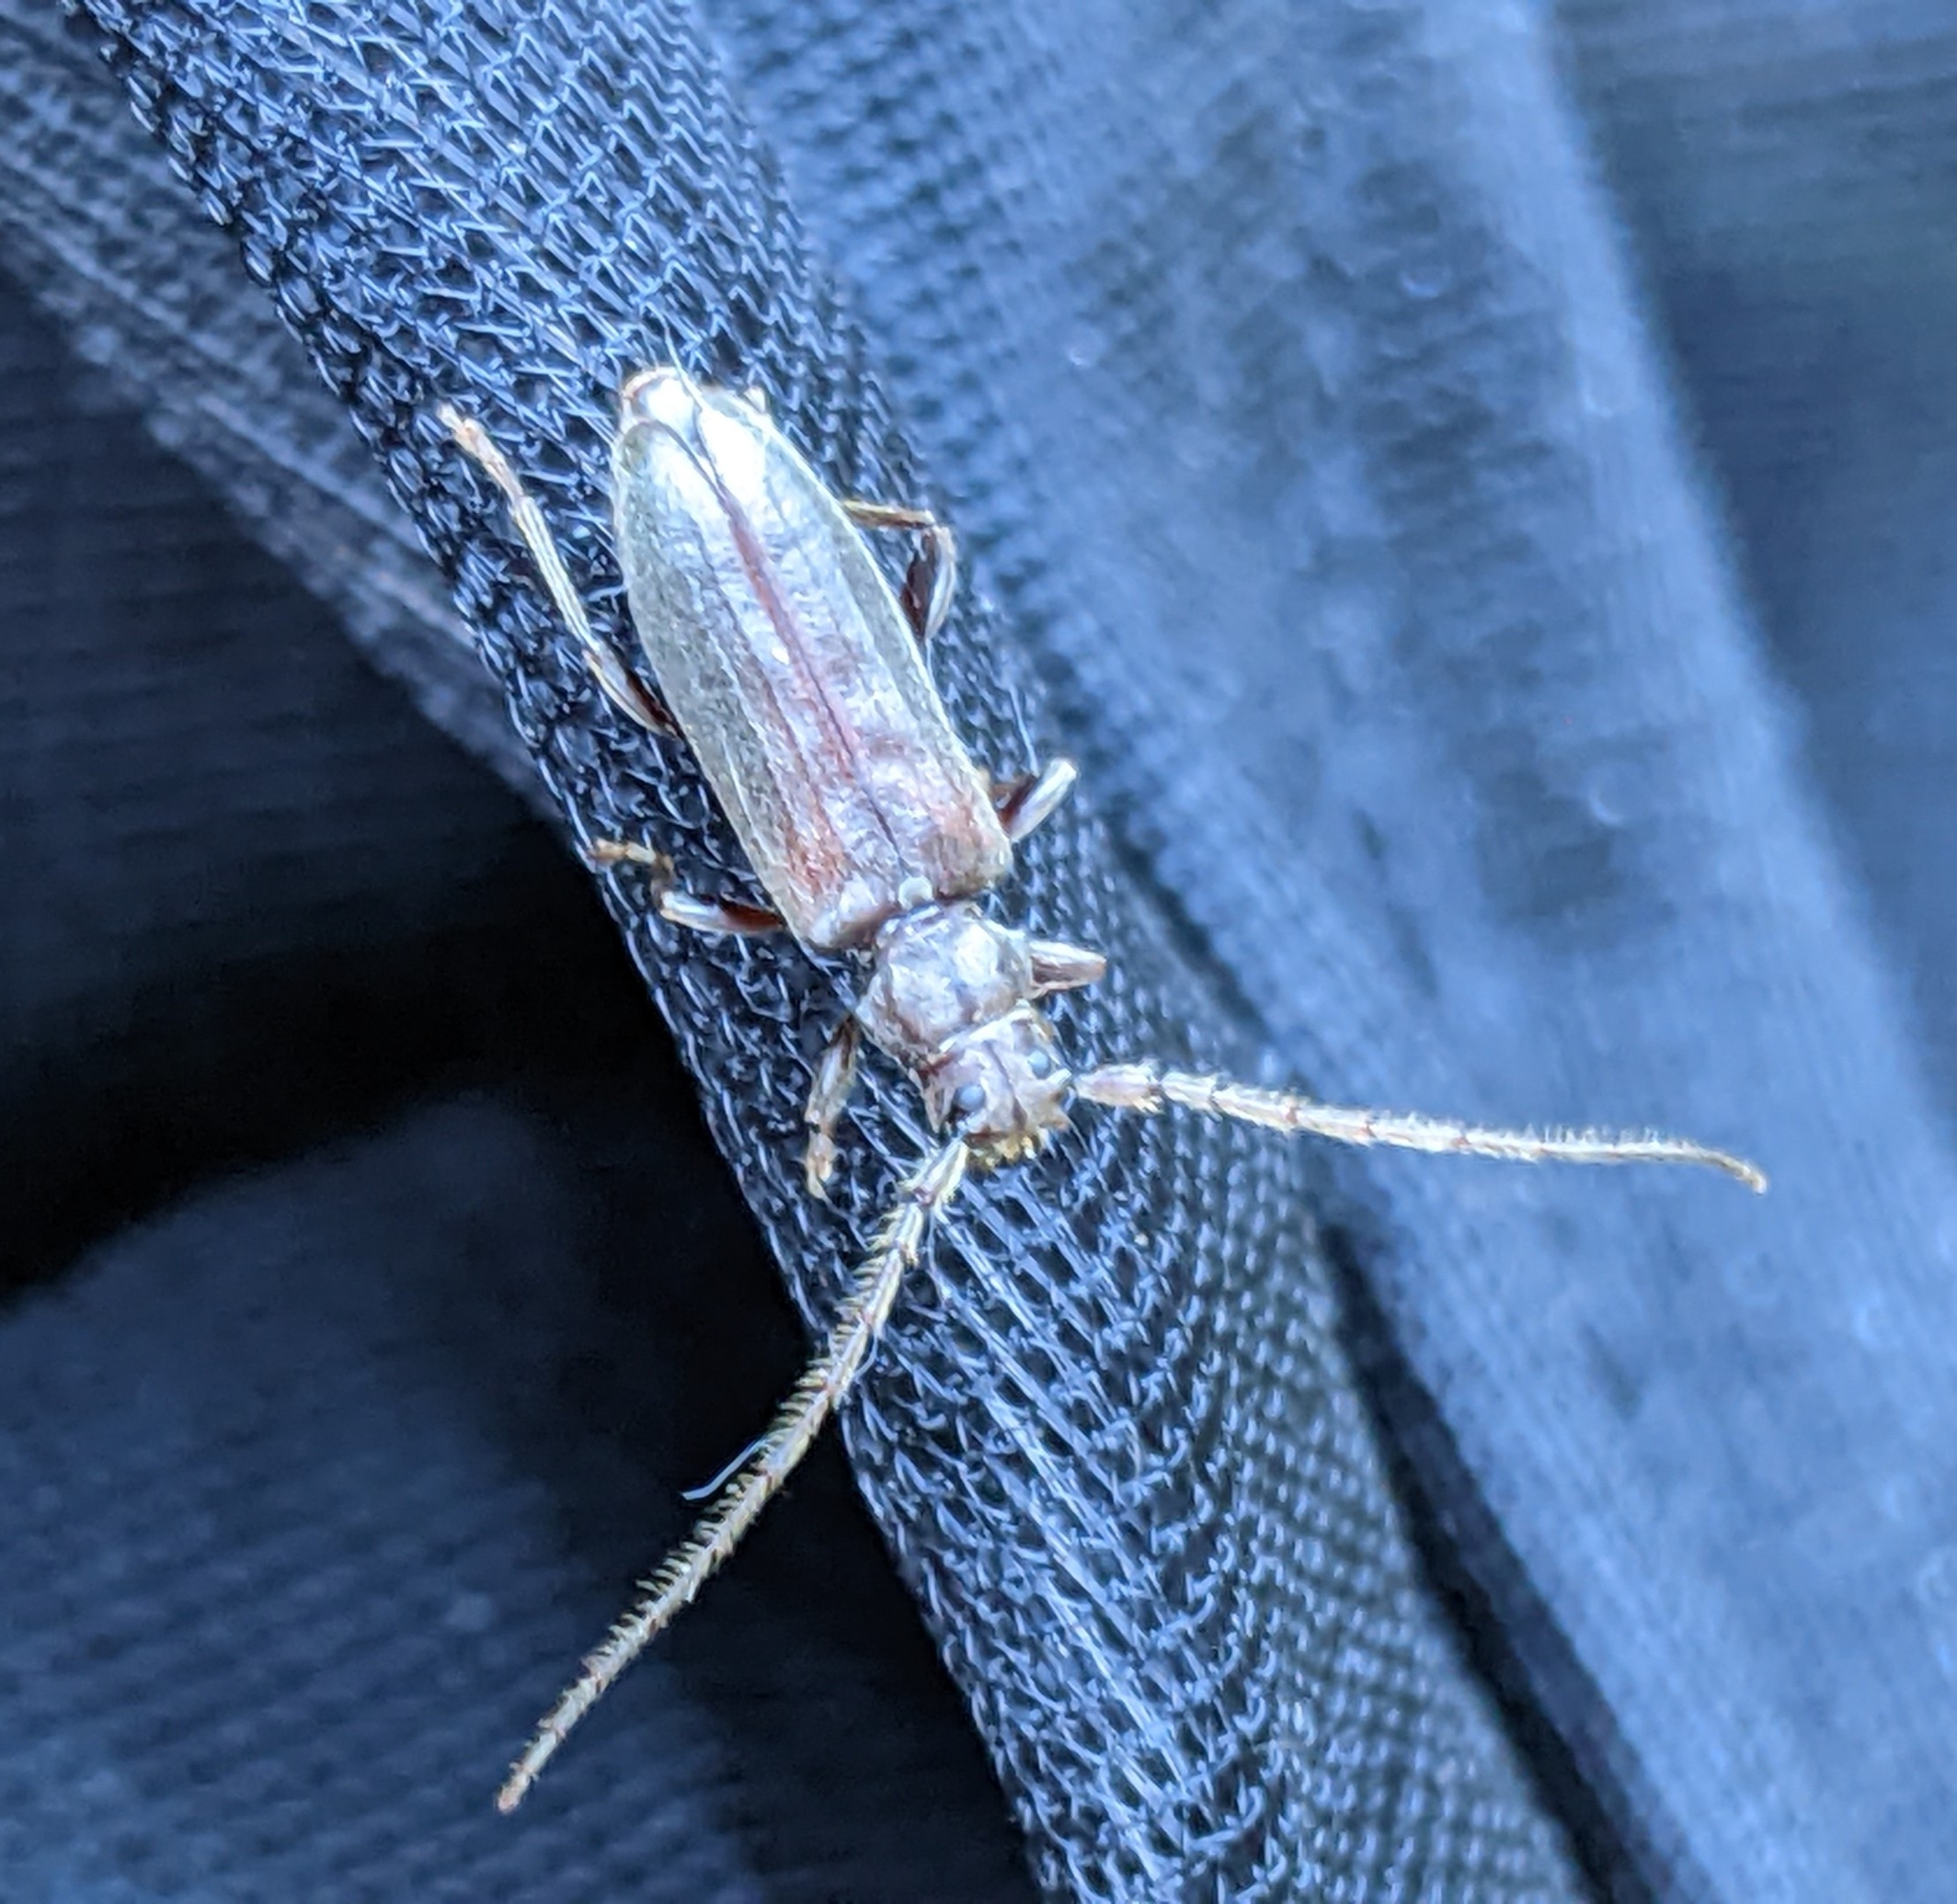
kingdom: Animalia
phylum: Arthropoda
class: Insecta
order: Coleoptera
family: Cerambycidae
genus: Opsimus
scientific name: Opsimus quadrilineatus
